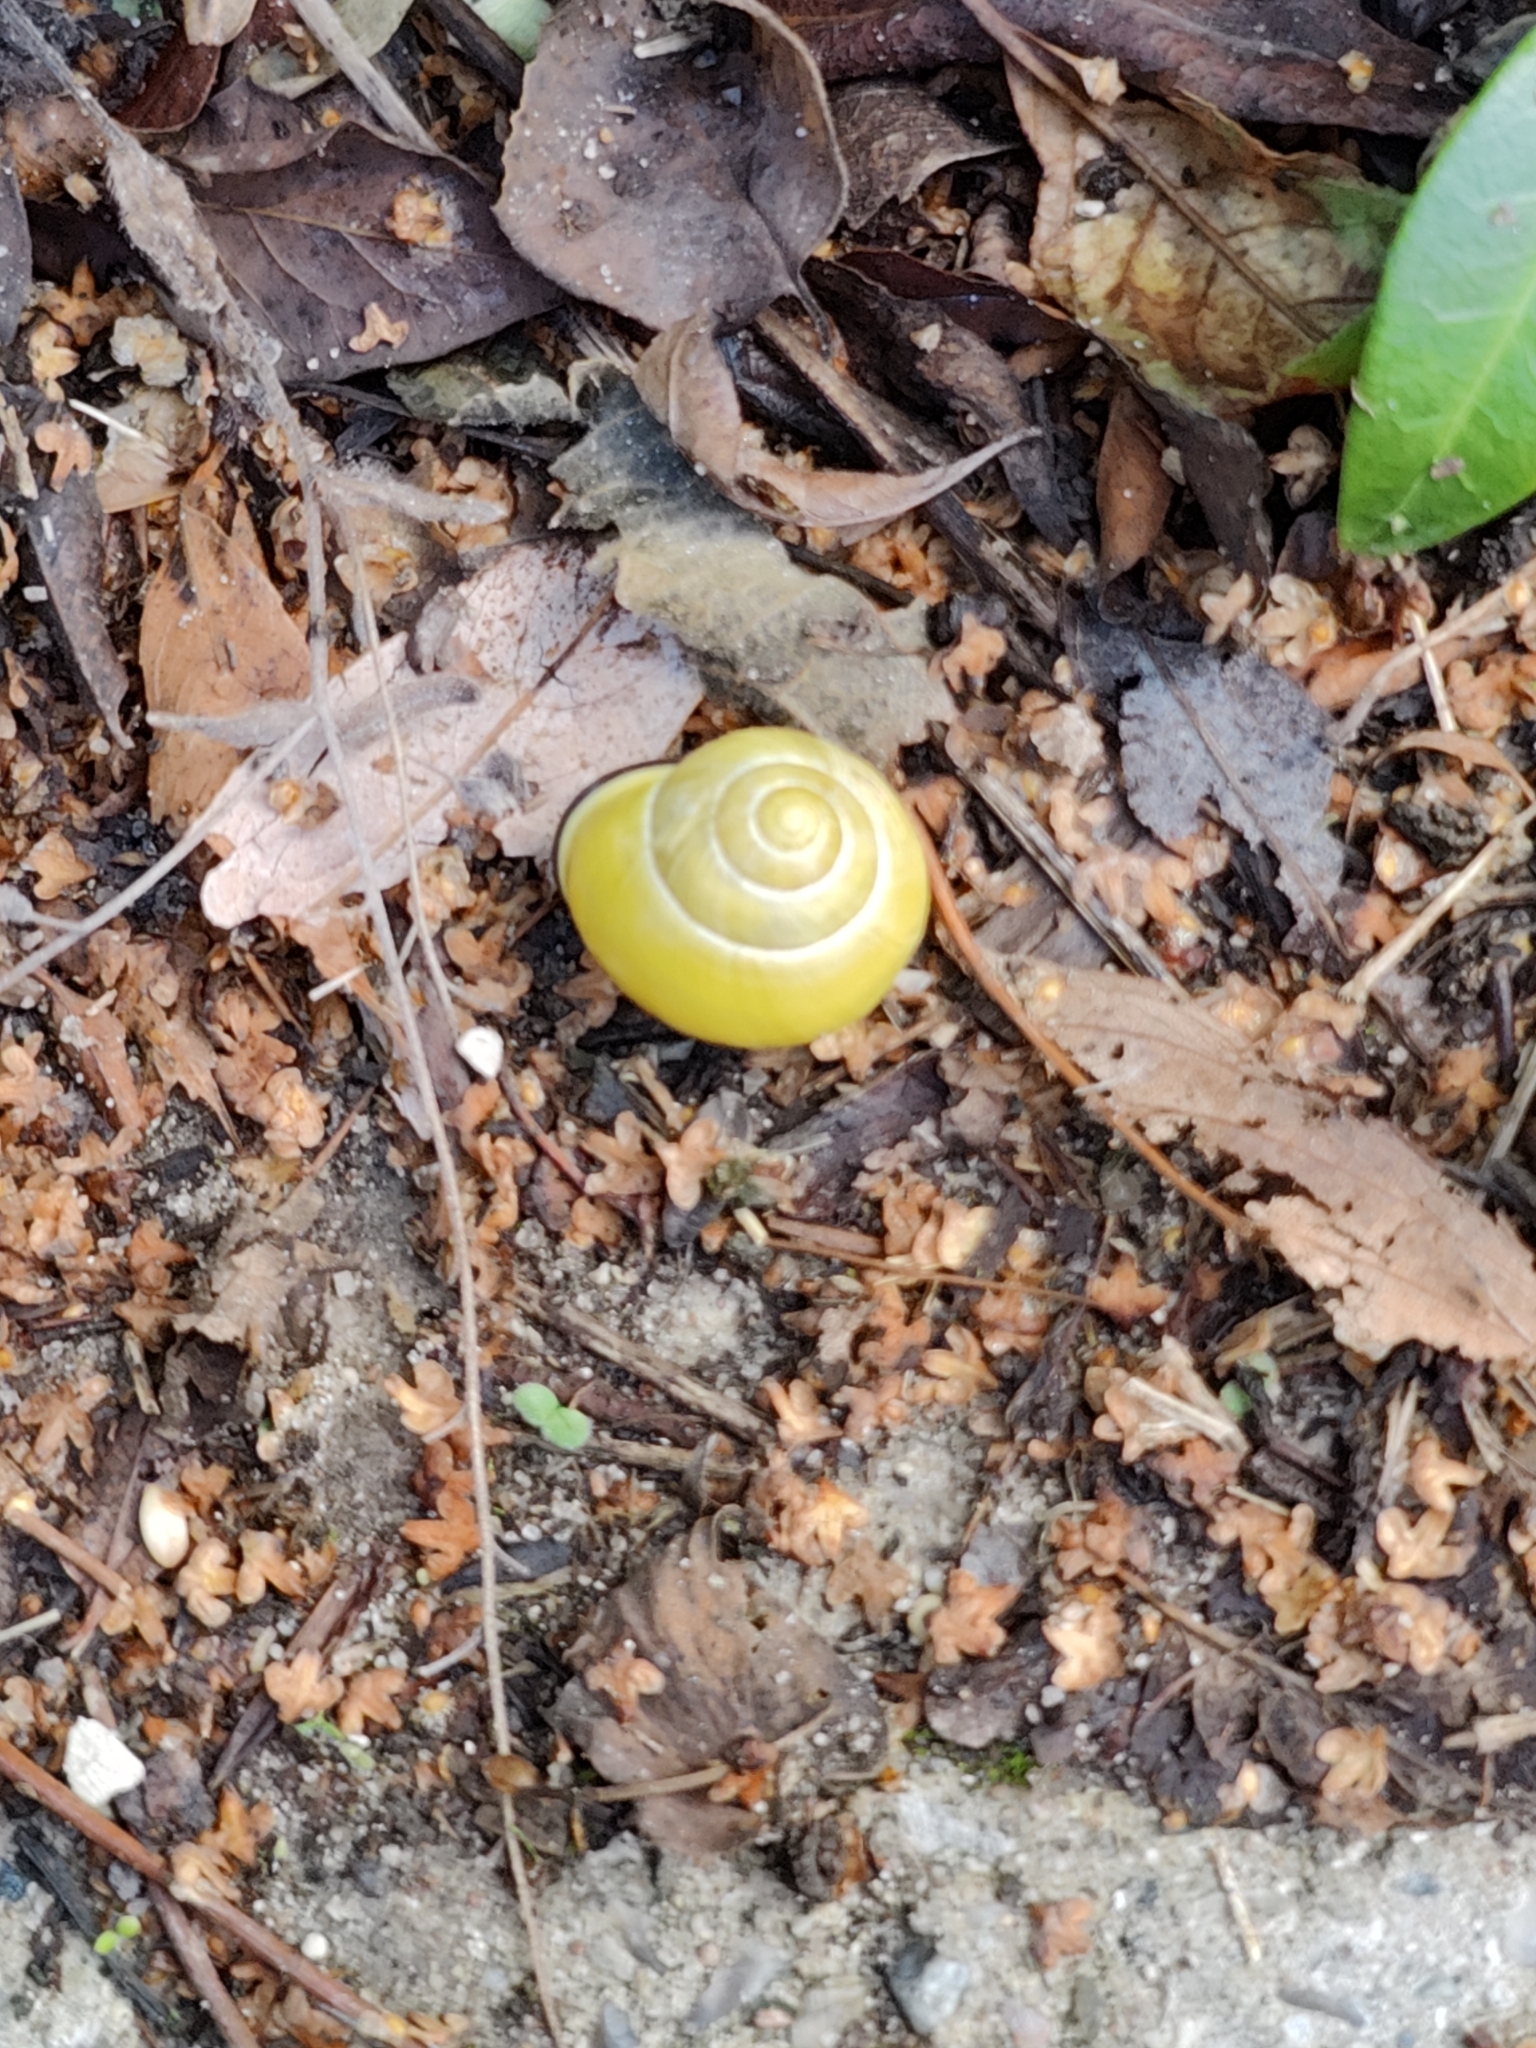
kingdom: Animalia
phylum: Mollusca
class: Gastropoda
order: Stylommatophora
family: Helicidae
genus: Cepaea
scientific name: Cepaea nemoralis
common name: Grovesnail
